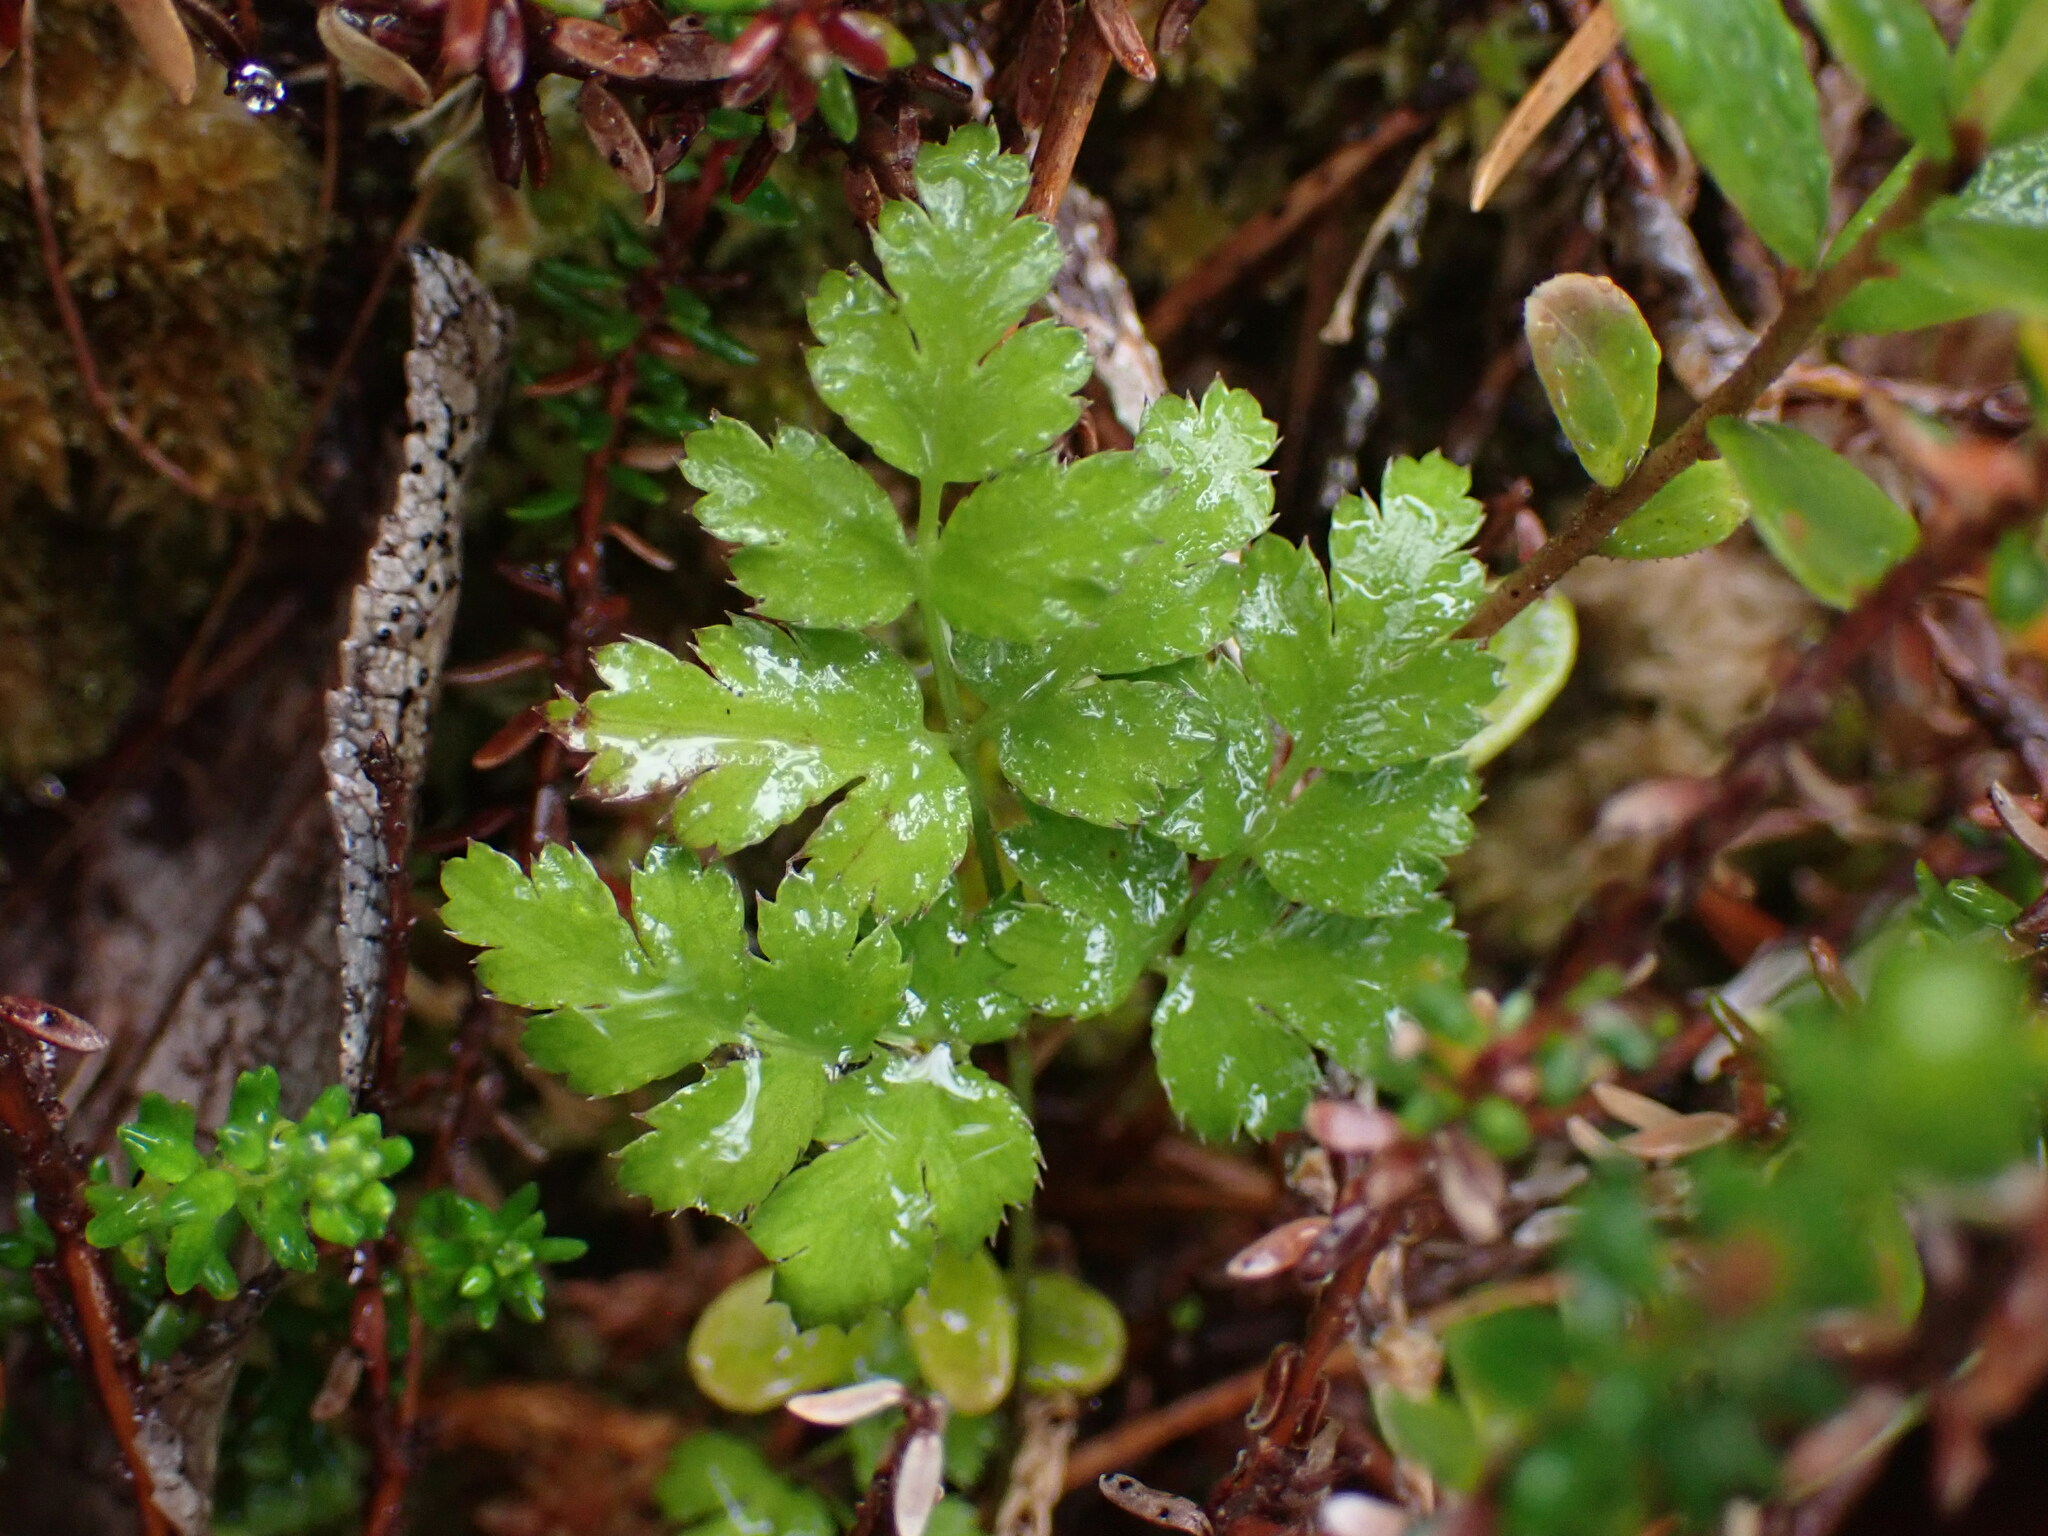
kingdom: Plantae
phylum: Tracheophyta
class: Magnoliopsida
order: Ranunculales
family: Ranunculaceae
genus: Coptis
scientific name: Coptis aspleniifolia
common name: Fern-leaved goldthread
